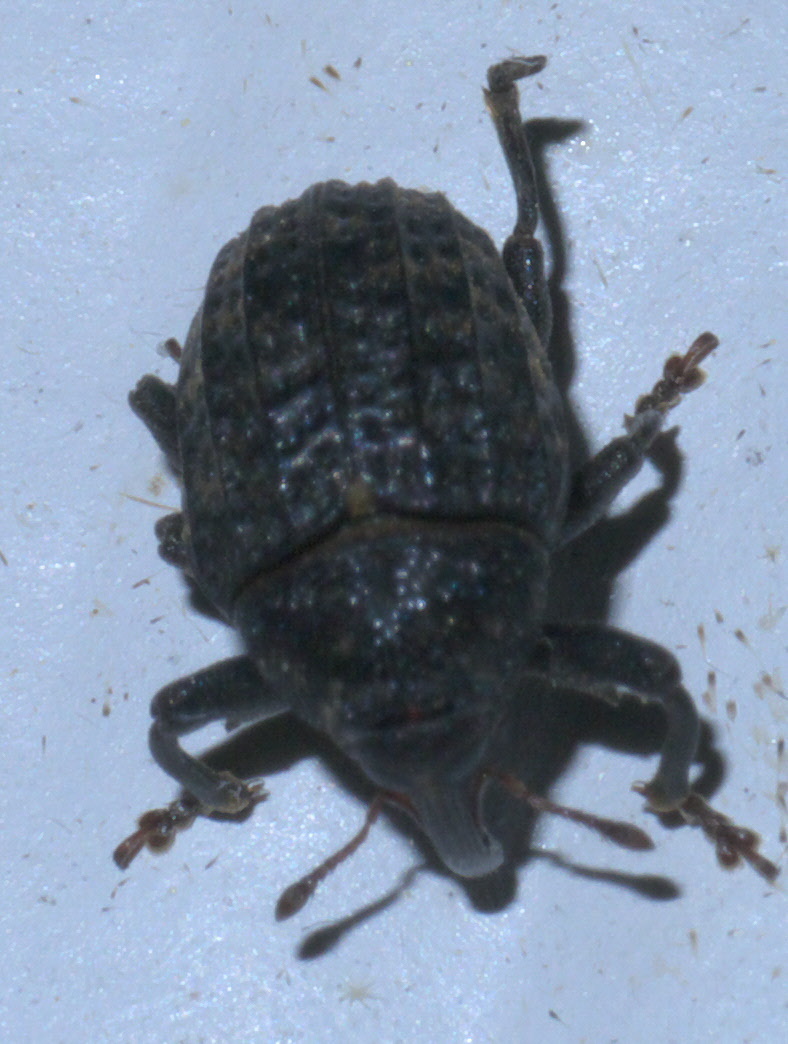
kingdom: Animalia
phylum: Arthropoda
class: Insecta
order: Coleoptera
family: Curculionidae
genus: Rhyssomatus
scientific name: Rhyssomatus palmacollis
